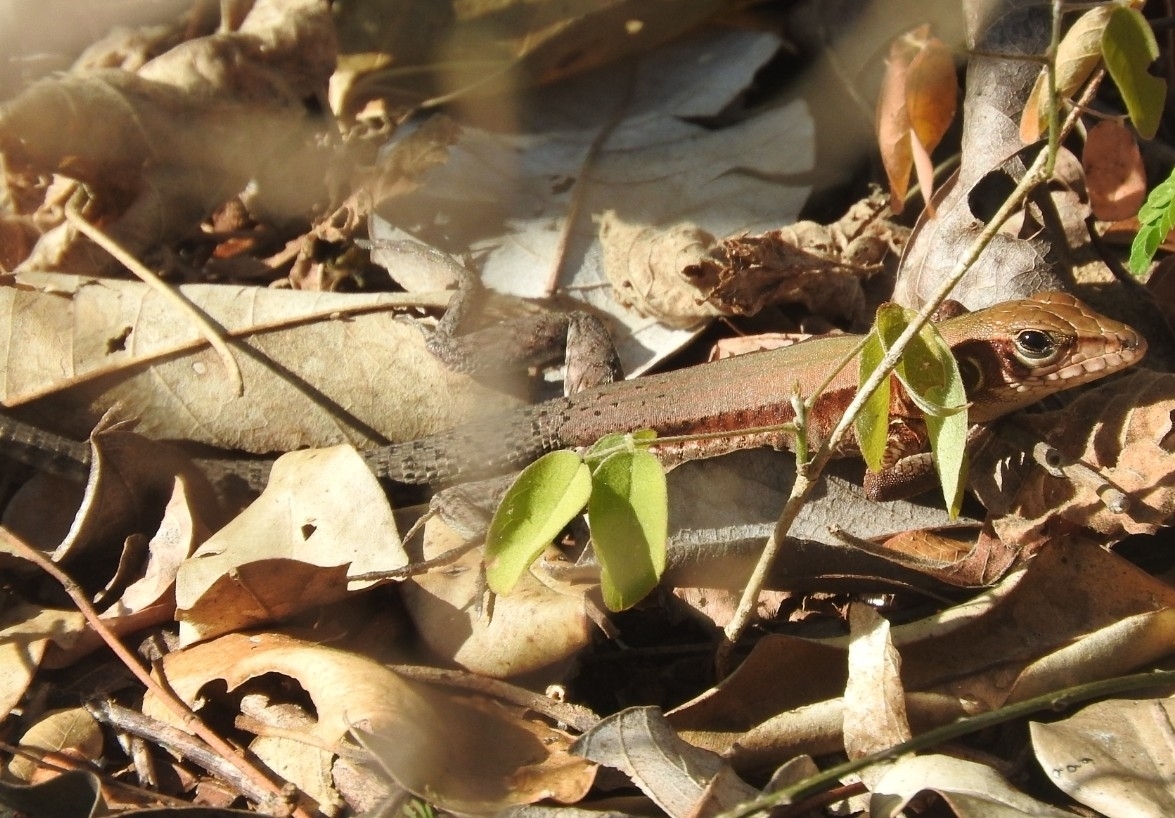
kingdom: Animalia
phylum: Chordata
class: Squamata
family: Teiidae
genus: Holcosus
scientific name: Holcosus gaigeae
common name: Rainbow ameiva
